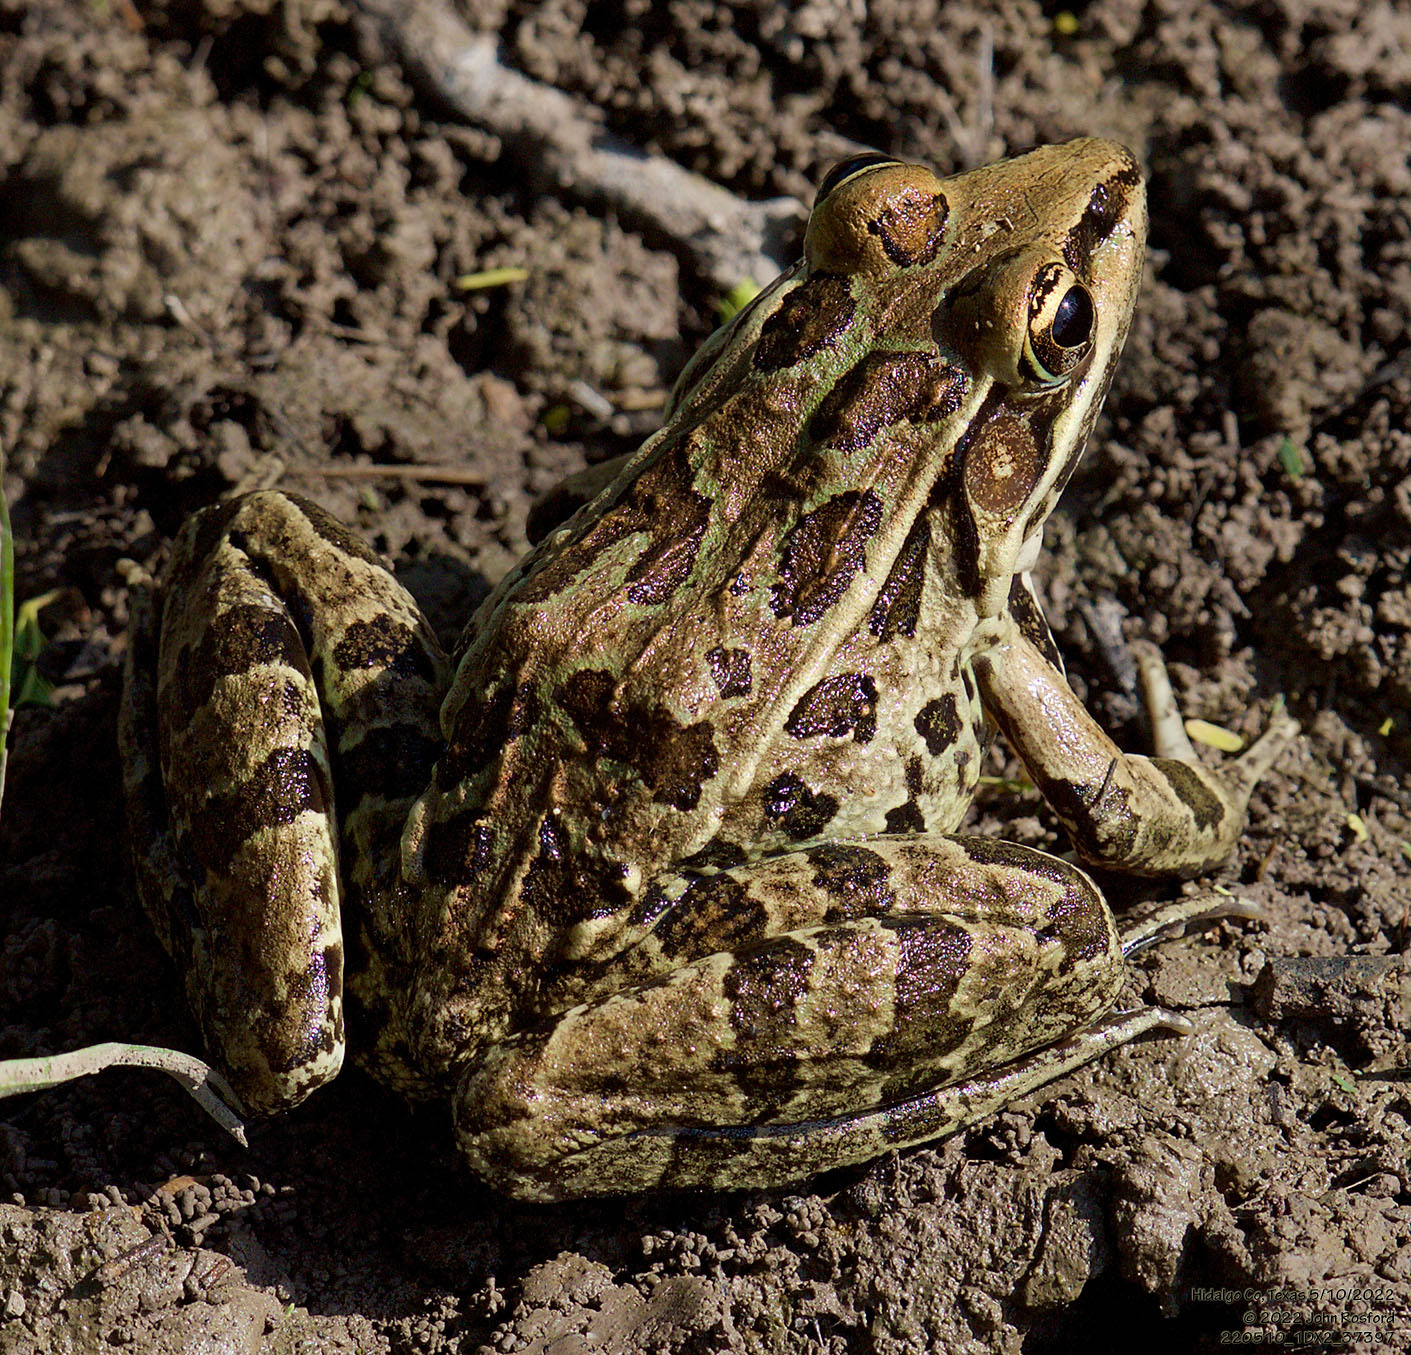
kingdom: Animalia
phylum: Chordata
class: Amphibia
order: Anura
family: Ranidae
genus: Lithobates
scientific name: Lithobates berlandieri
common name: Rio grande leopard frog
